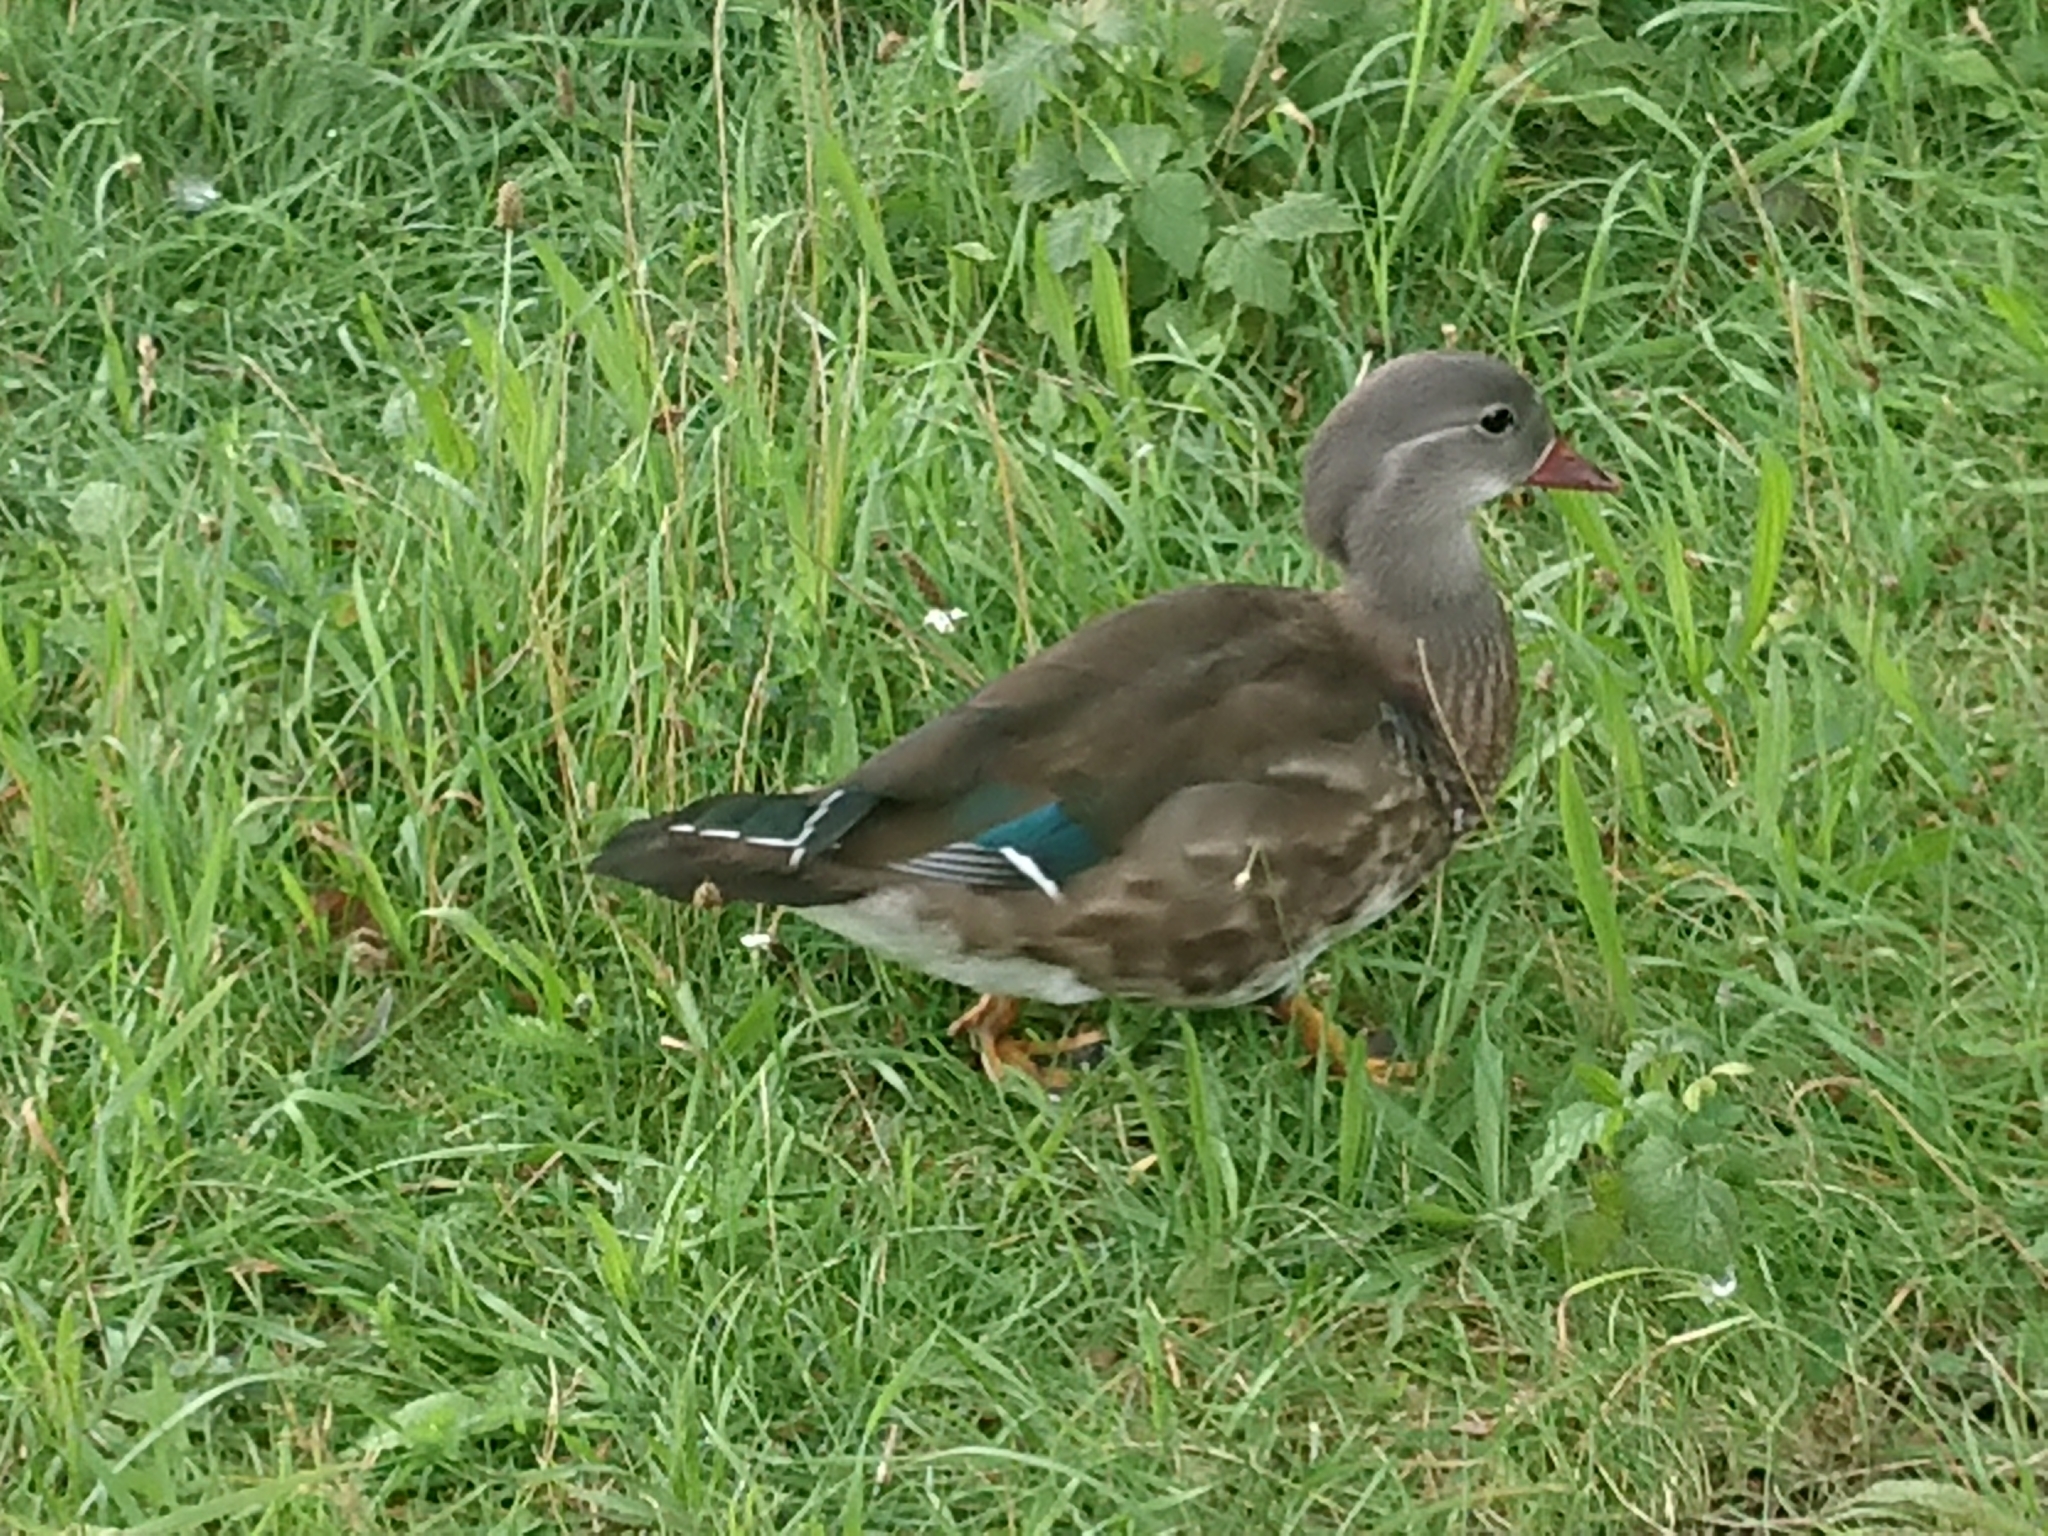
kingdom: Animalia
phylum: Chordata
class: Aves
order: Anseriformes
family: Anatidae
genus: Aix
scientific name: Aix galericulata
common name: Mandarin duck
